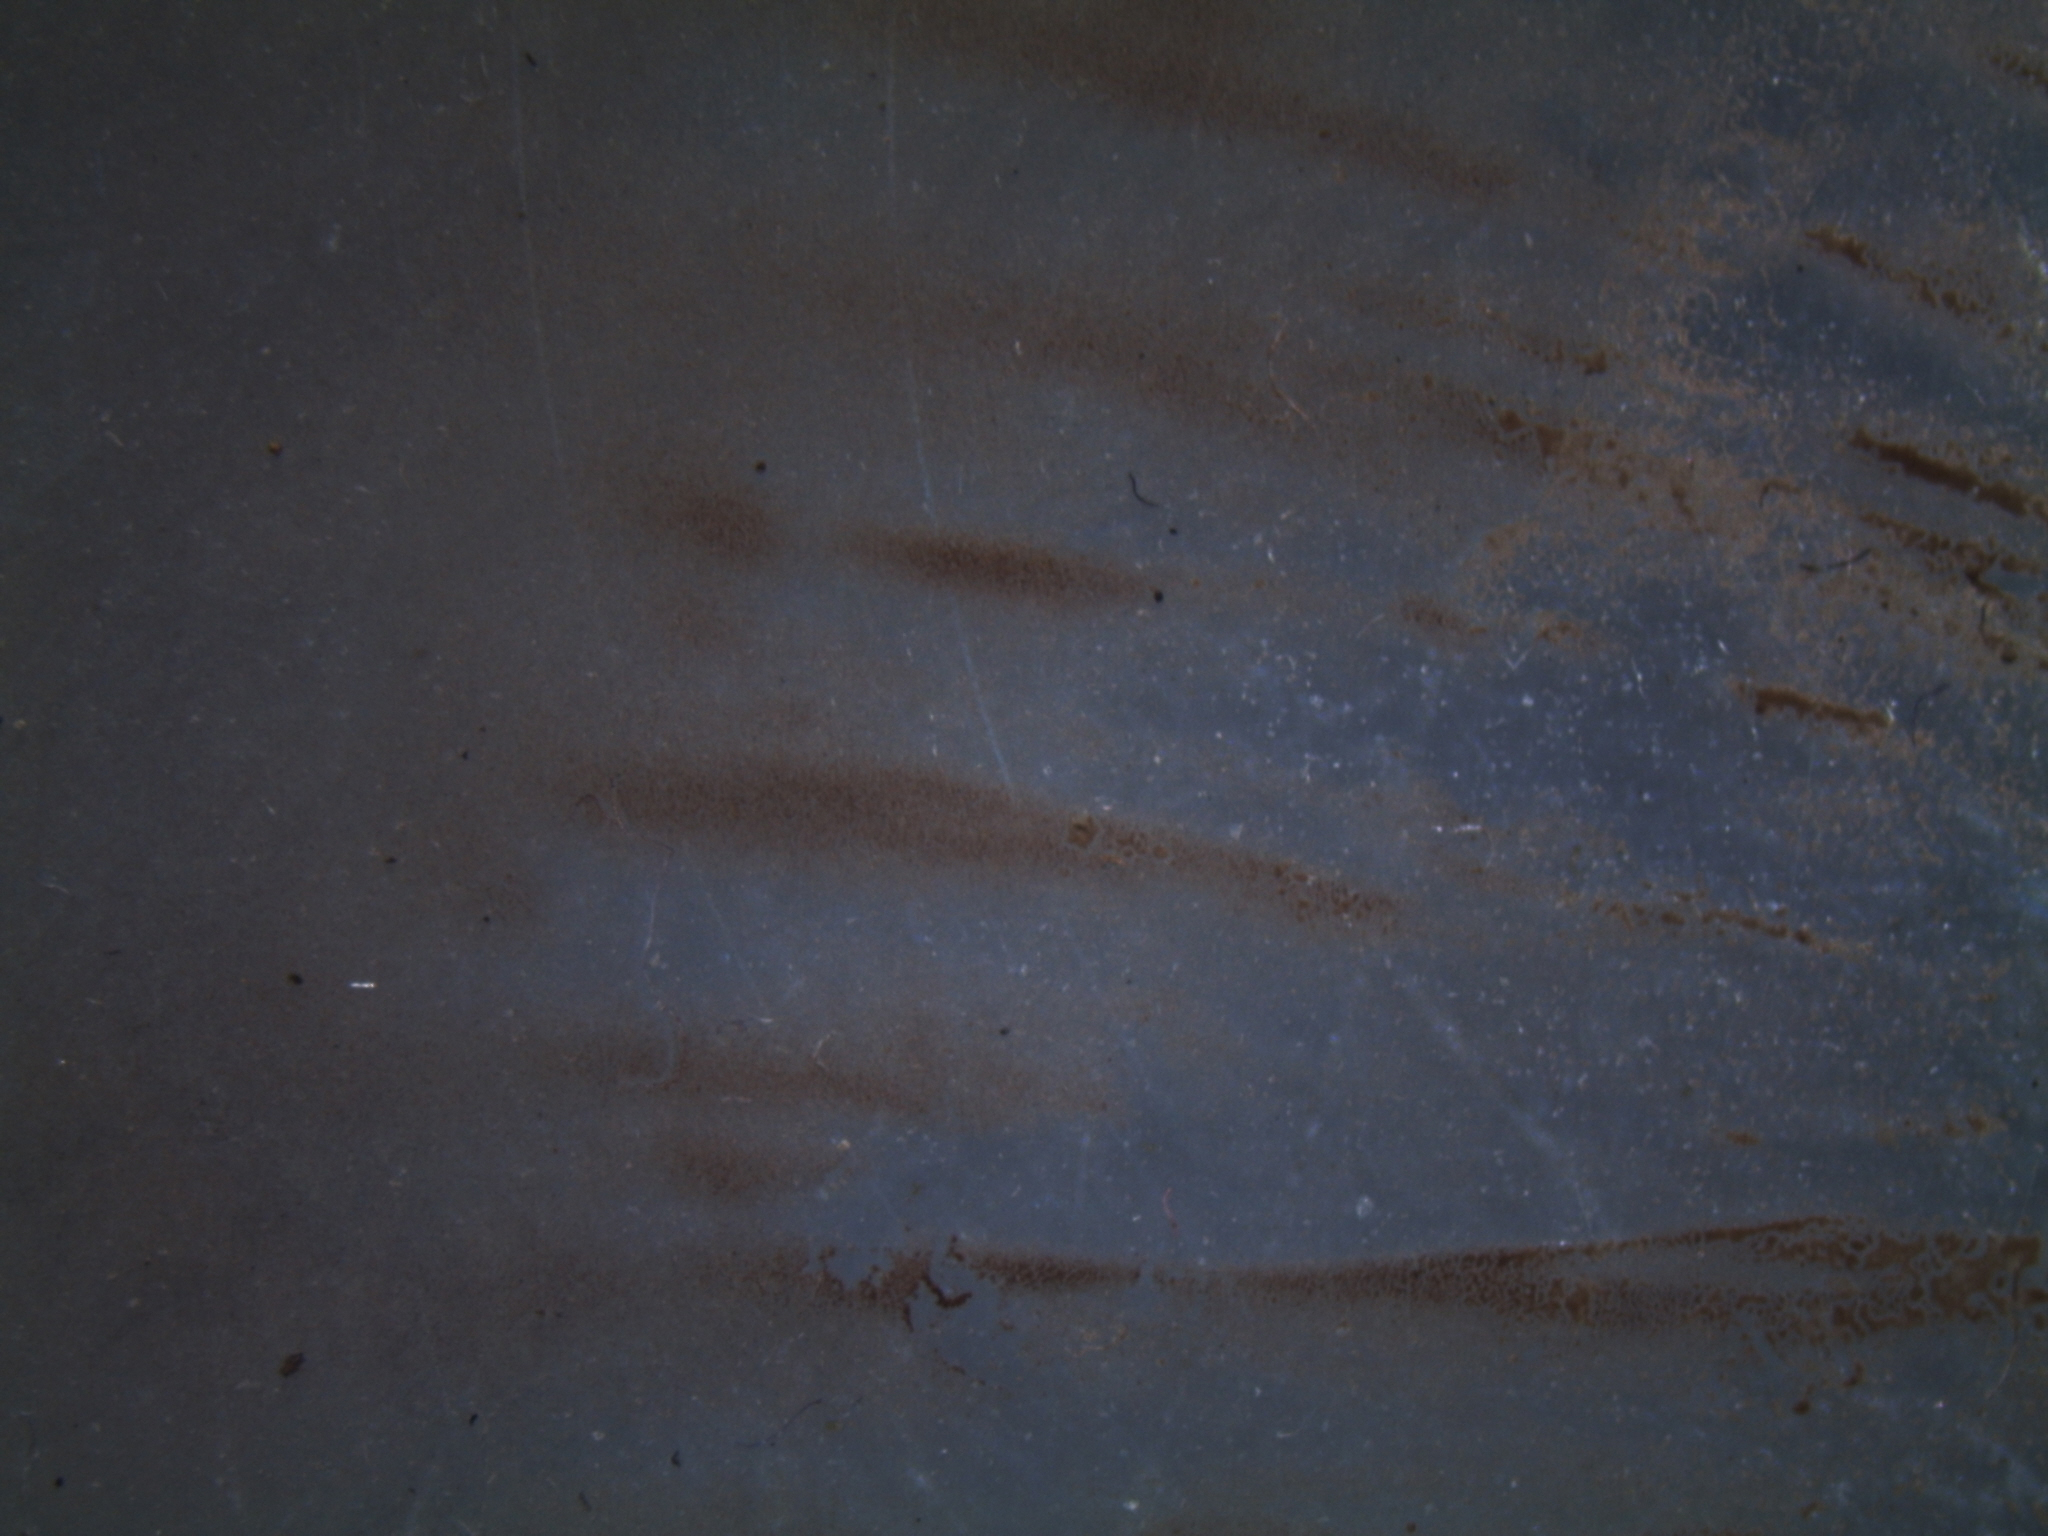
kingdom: Fungi
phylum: Basidiomycota
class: Agaricomycetes
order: Agaricales
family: Strophariaceae
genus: Agrocybe
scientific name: Agrocybe praecox
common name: Spring fieldcap
